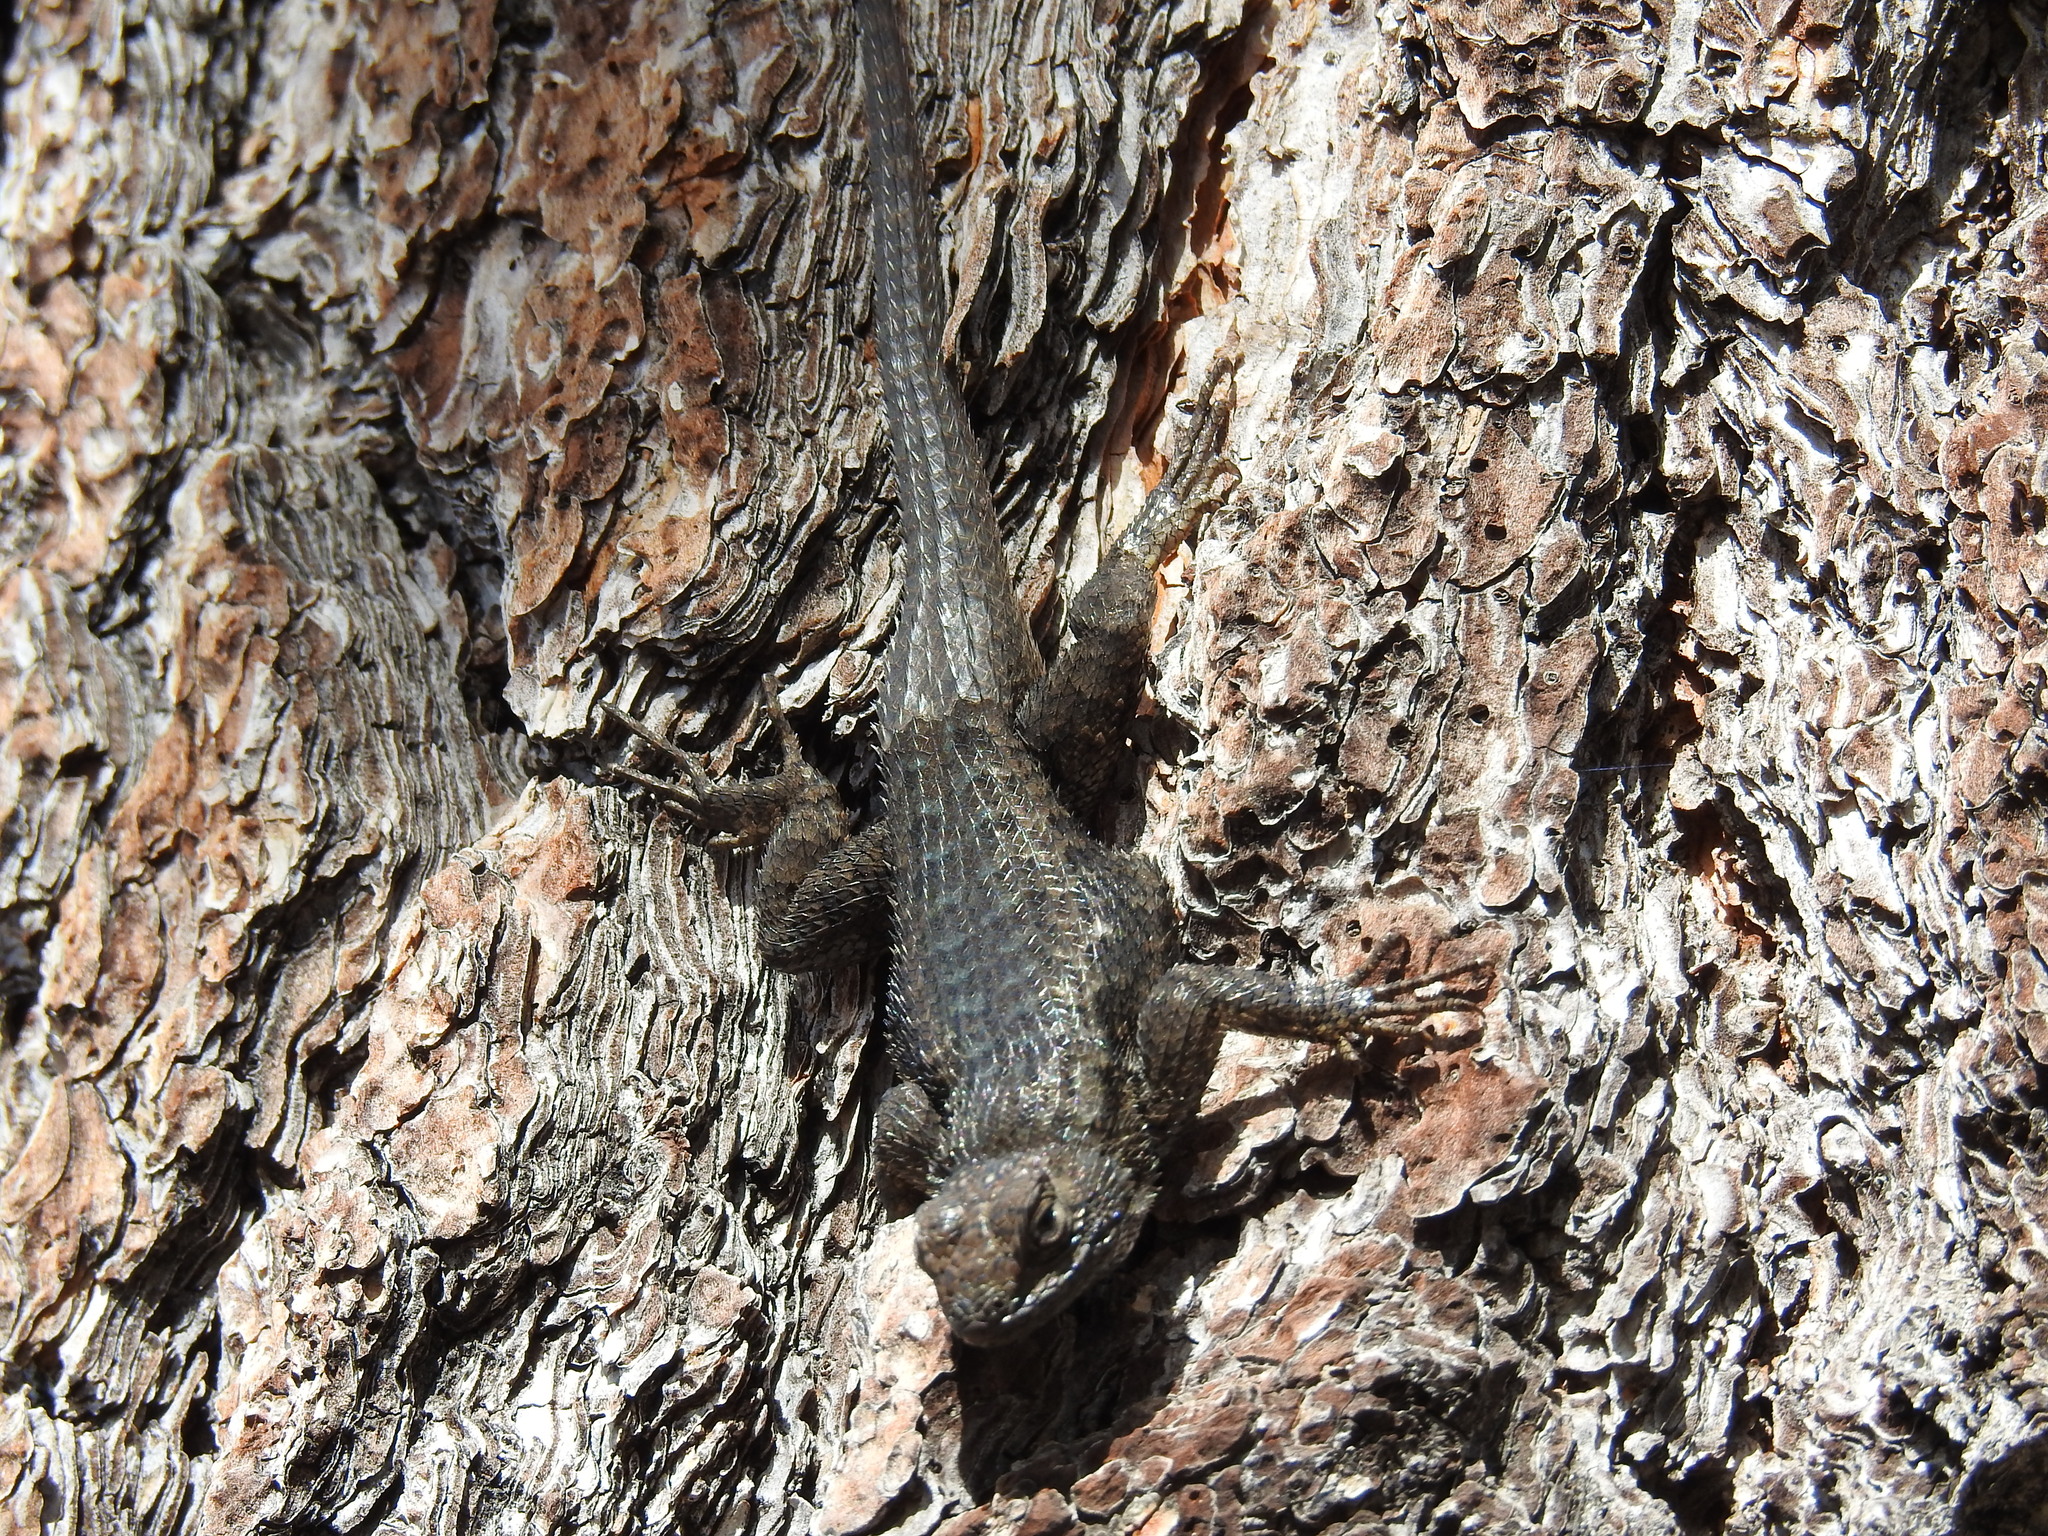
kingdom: Animalia
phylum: Chordata
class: Squamata
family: Phrynosomatidae
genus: Sceloporus
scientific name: Sceloporus occidentalis
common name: Western fence lizard
